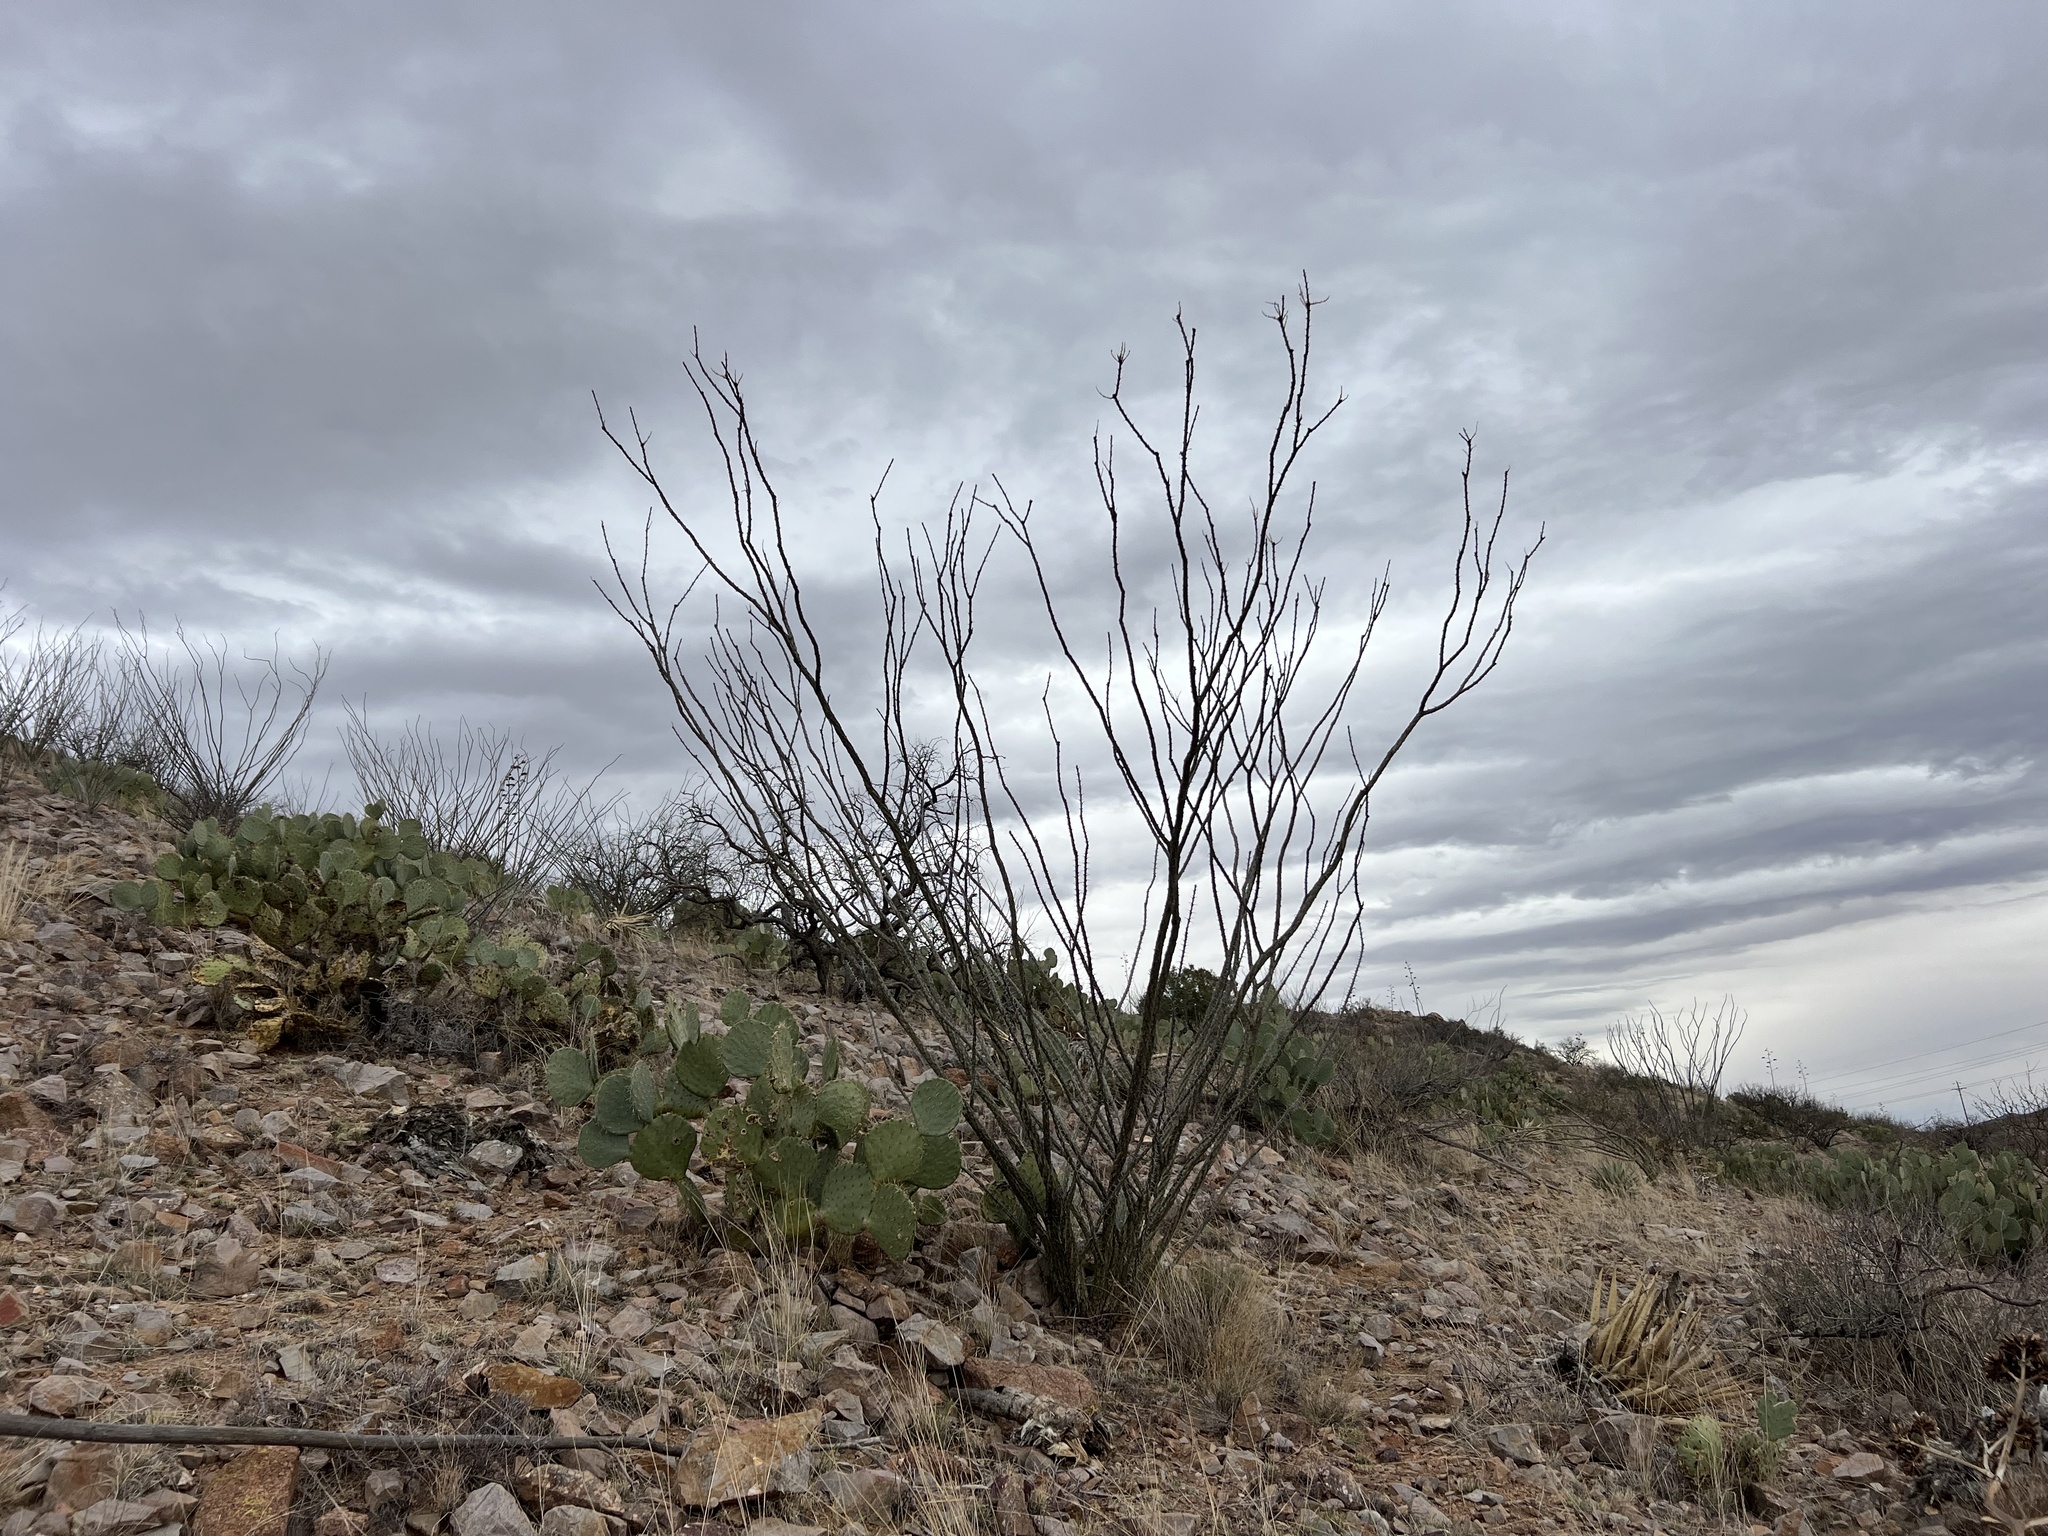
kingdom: Plantae
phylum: Tracheophyta
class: Magnoliopsida
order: Ericales
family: Fouquieriaceae
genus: Fouquieria
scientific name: Fouquieria splendens
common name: Vine-cactus
